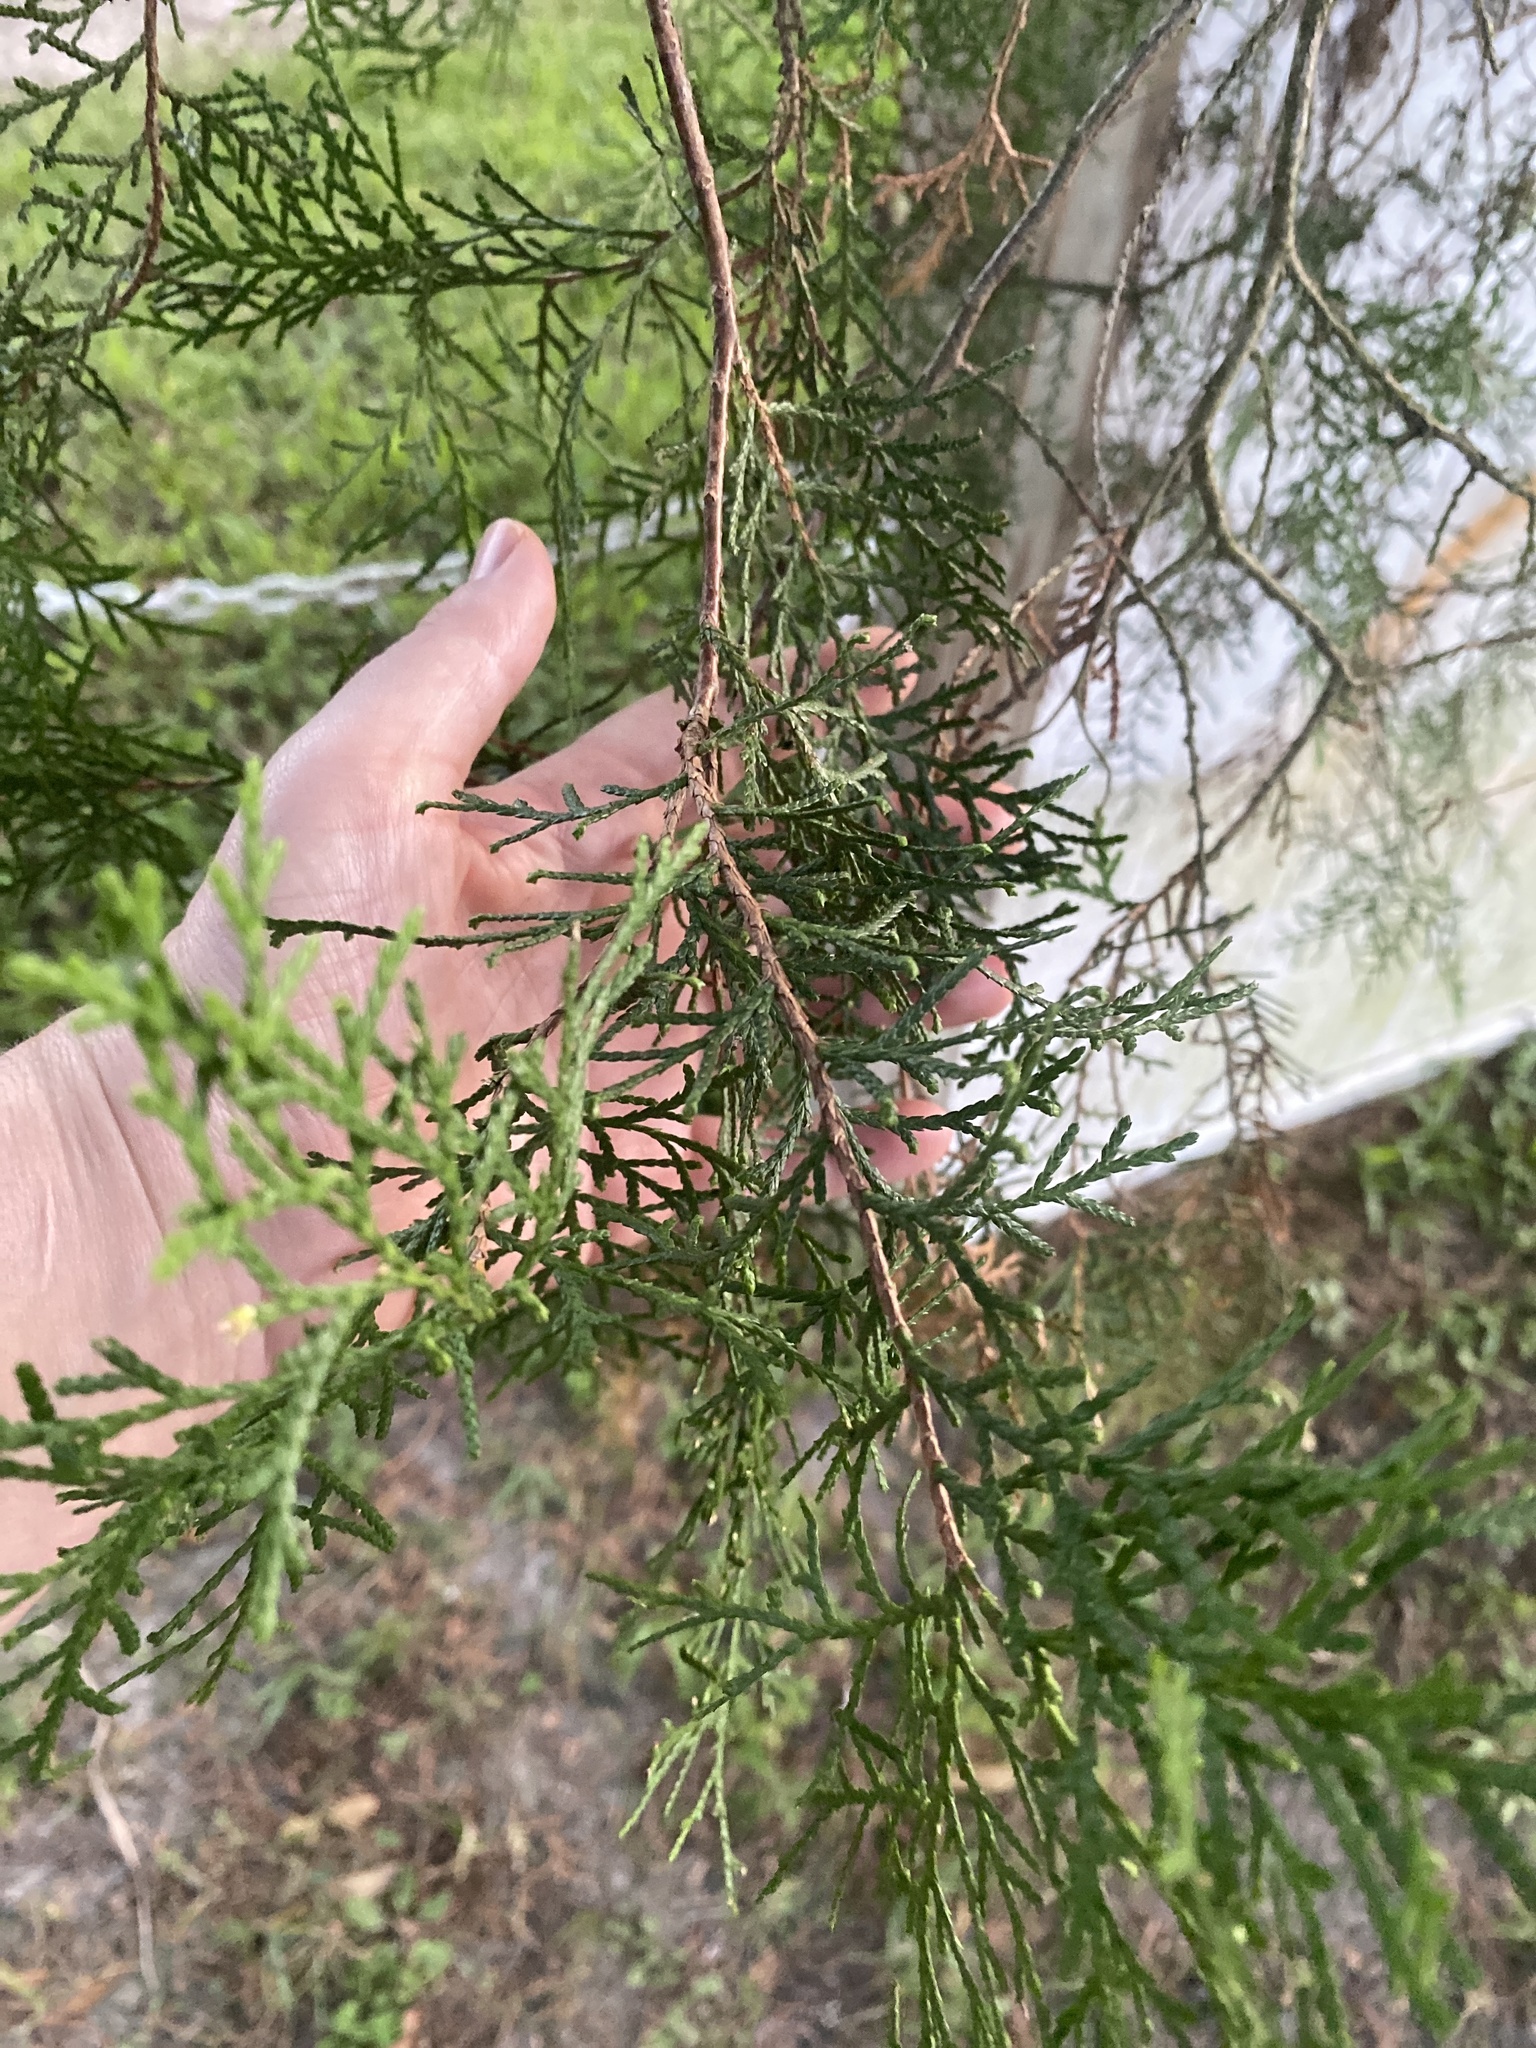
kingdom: Plantae
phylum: Tracheophyta
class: Pinopsida
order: Pinales
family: Cupressaceae
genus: Juniperus
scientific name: Juniperus virginiana
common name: Red juniper
